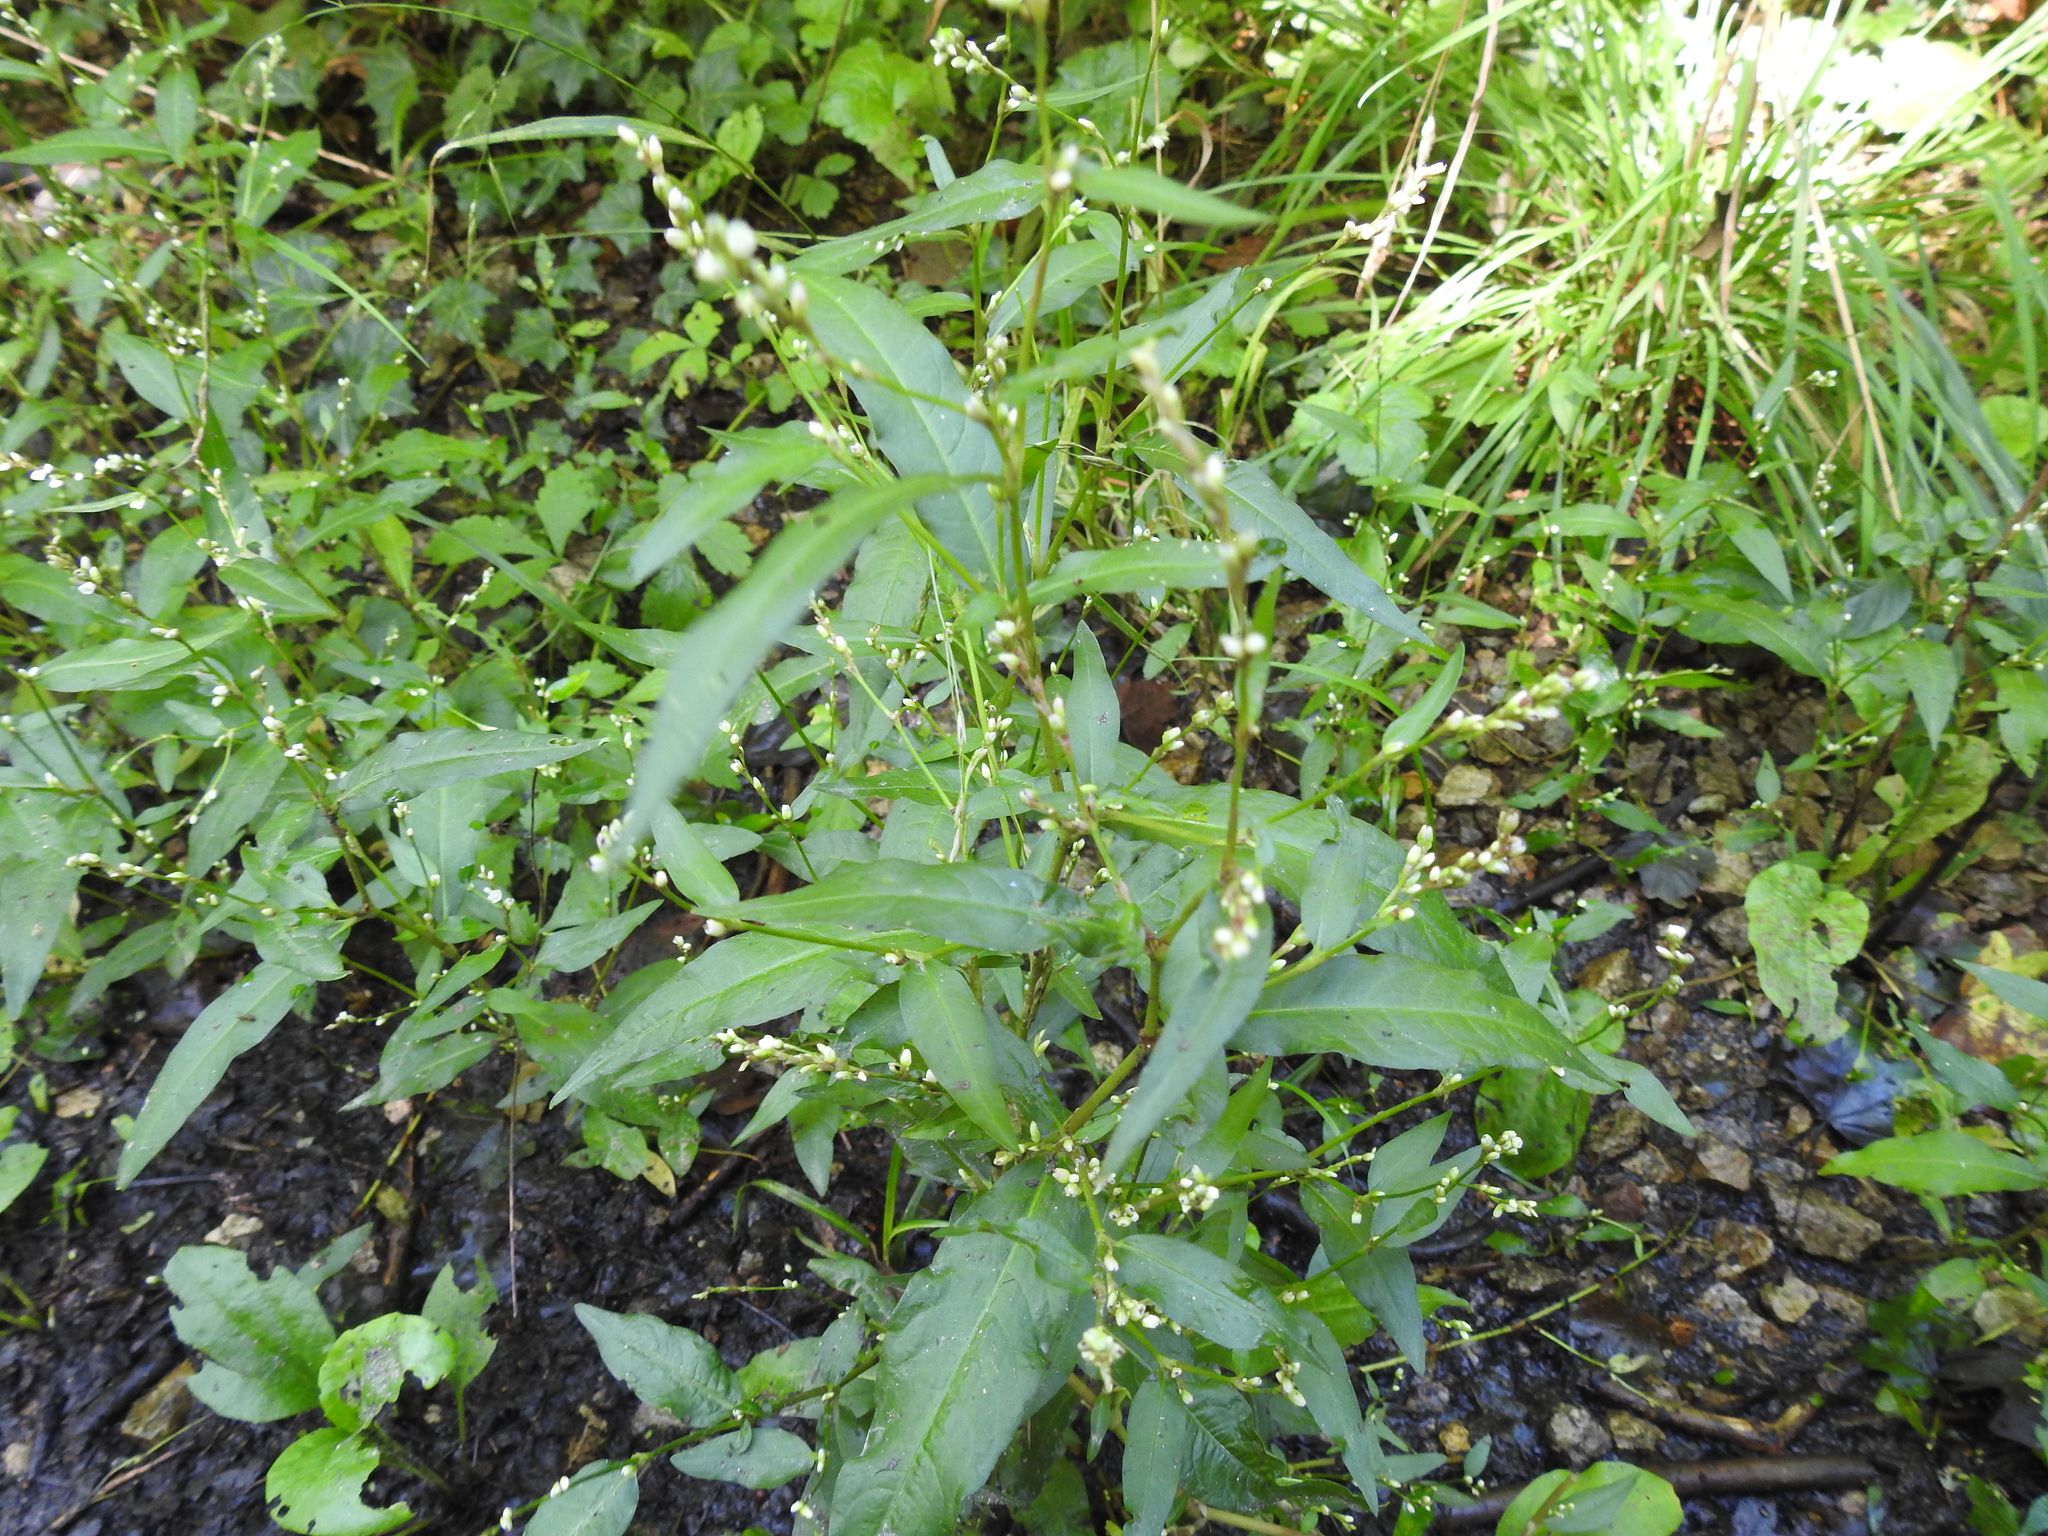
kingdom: Plantae
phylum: Tracheophyta
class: Magnoliopsida
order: Caryophyllales
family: Polygonaceae
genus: Persicaria
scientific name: Persicaria hydropiper
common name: Water-pepper
